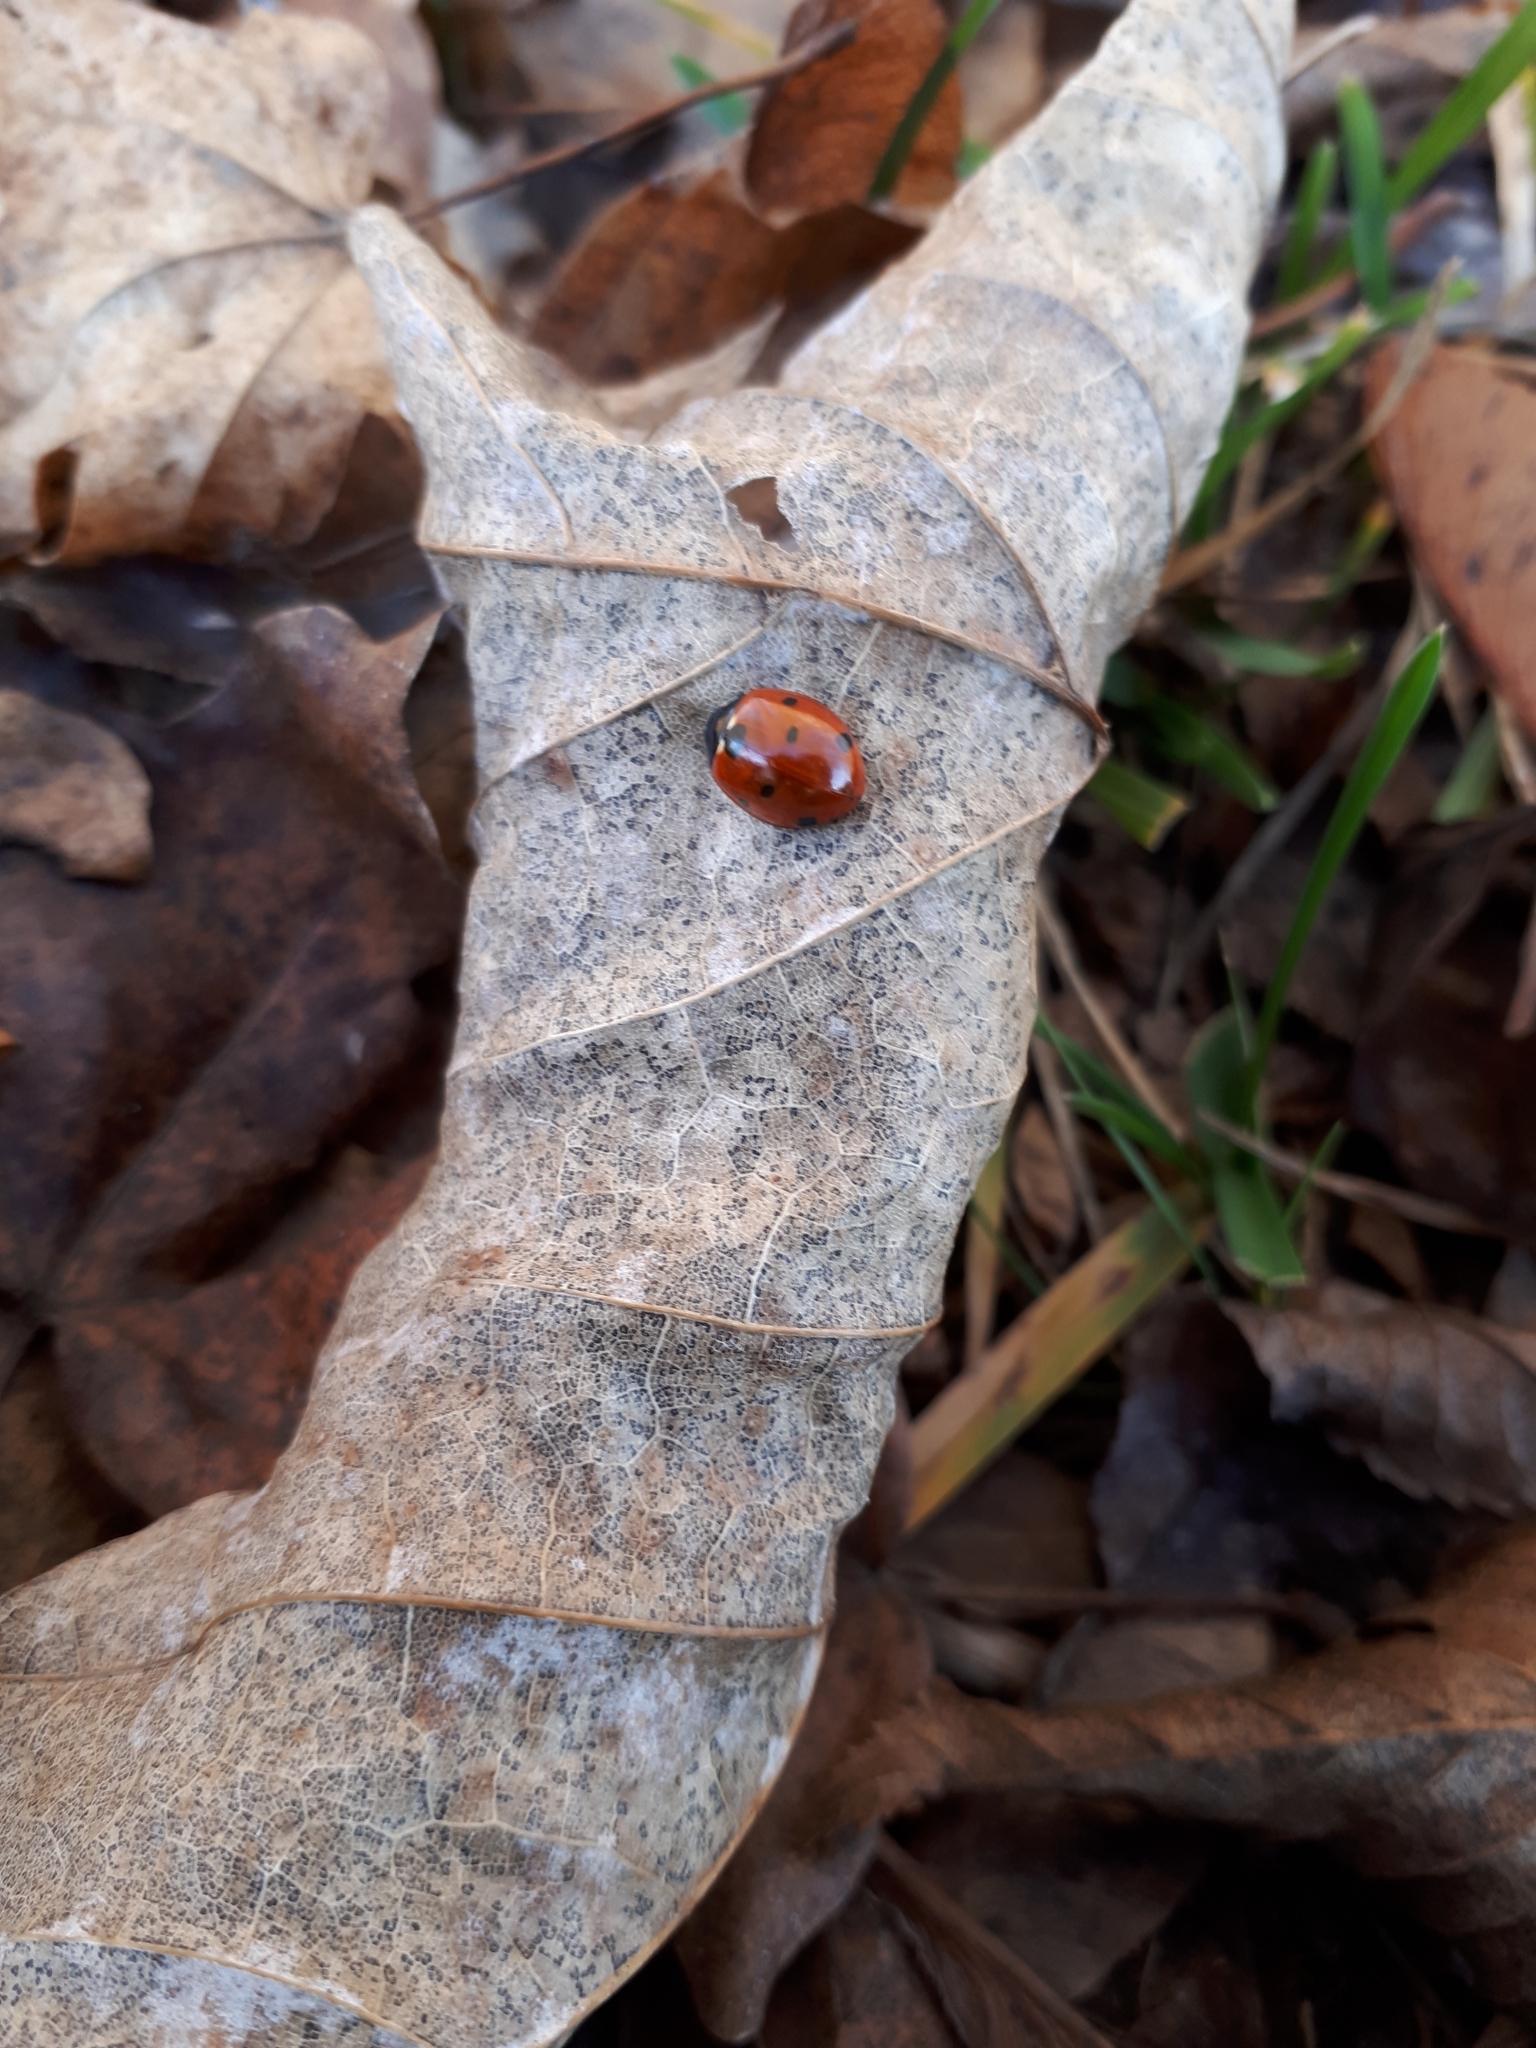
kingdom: Animalia
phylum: Arthropoda
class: Insecta
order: Coleoptera
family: Coccinellidae
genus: Coccinella
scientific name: Coccinella septempunctata
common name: Sevenspotted lady beetle
